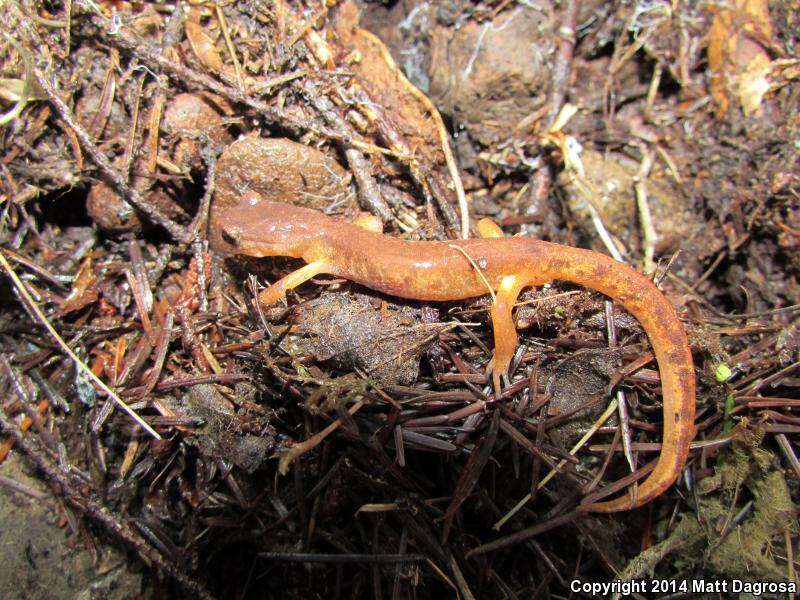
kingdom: Animalia
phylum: Chordata
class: Amphibia
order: Caudata
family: Plethodontidae
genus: Ensatina
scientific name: Ensatina eschscholtzii
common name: Ensatina
